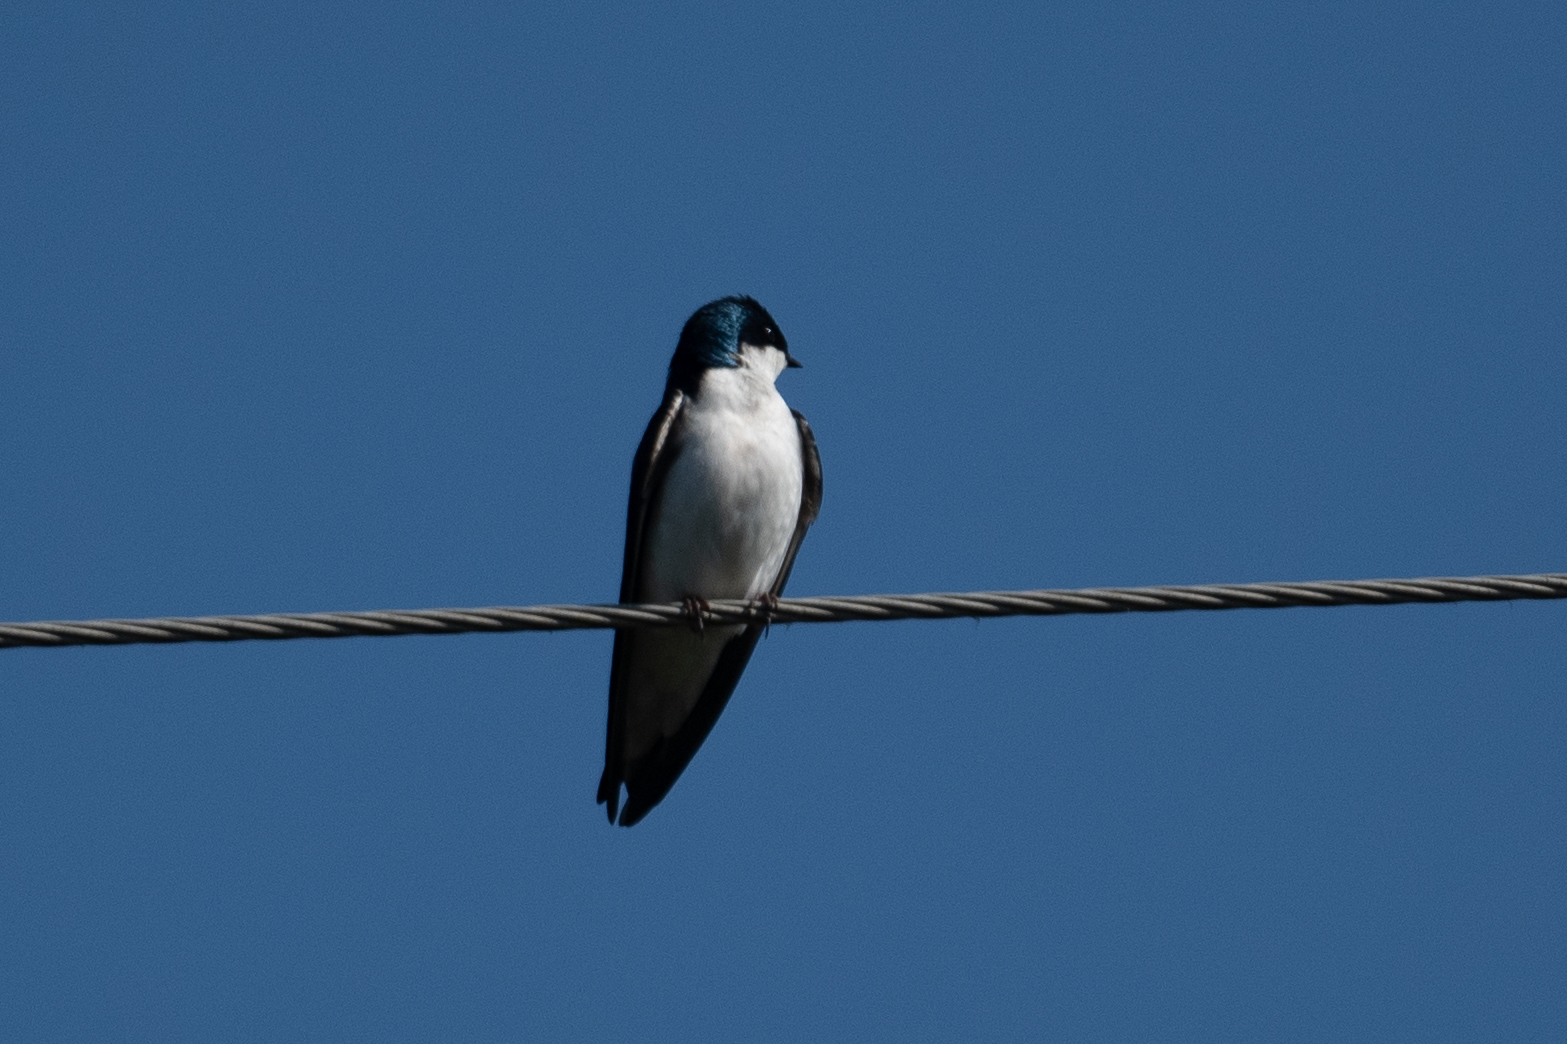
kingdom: Animalia
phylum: Chordata
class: Aves
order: Passeriformes
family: Hirundinidae
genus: Tachycineta
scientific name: Tachycineta bicolor
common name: Tree swallow
